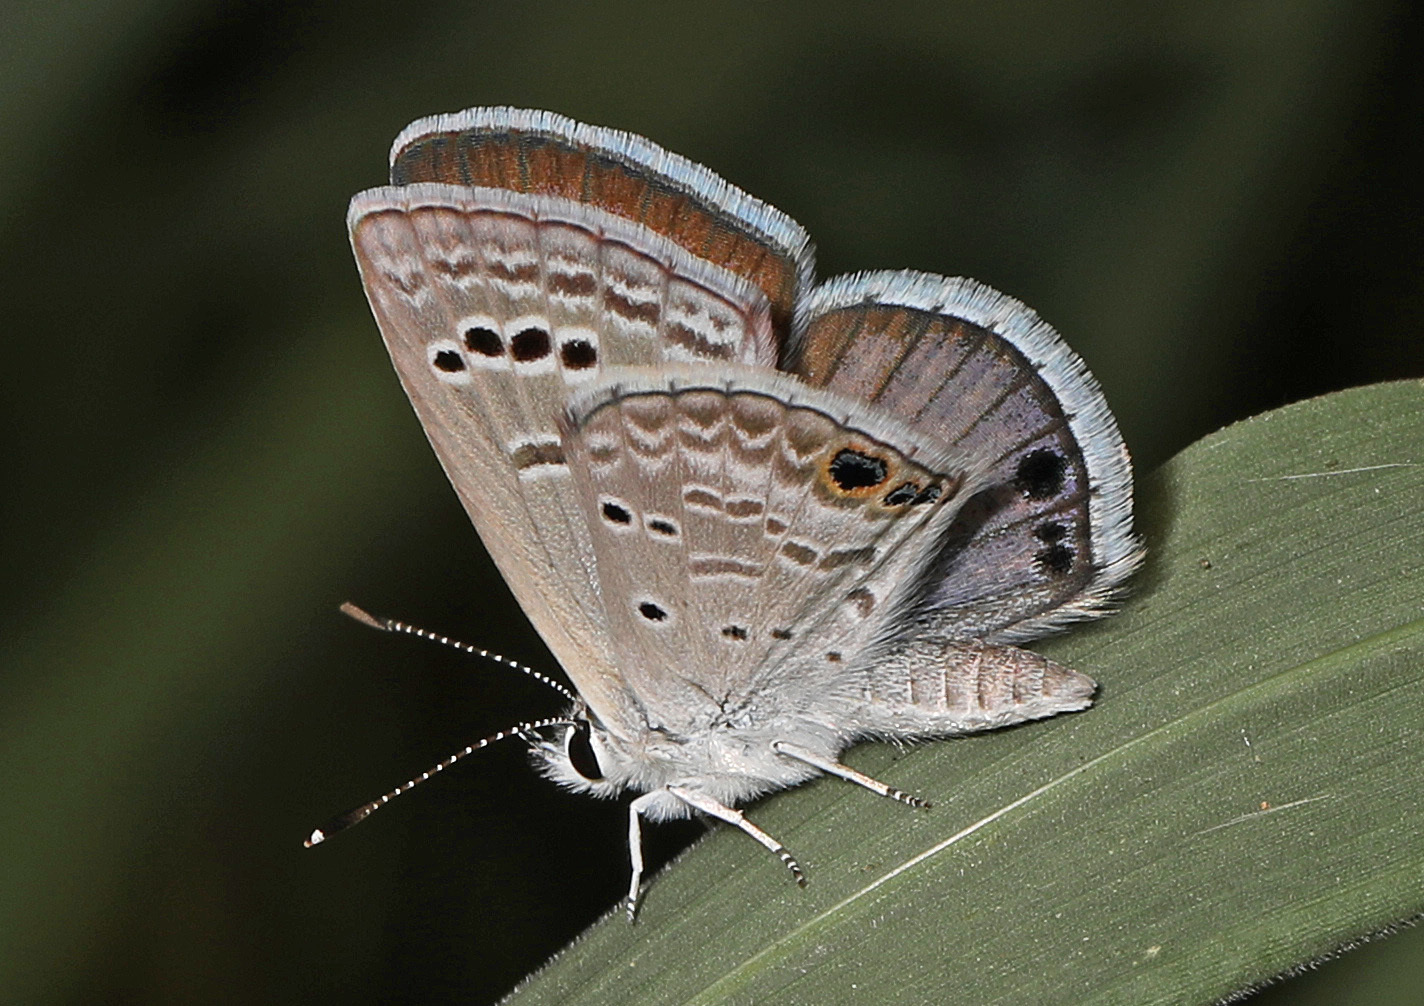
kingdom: Animalia
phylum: Arthropoda
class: Insecta
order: Lepidoptera
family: Lycaenidae
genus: Echinargus
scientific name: Echinargus isola
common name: Reakirt's blue
